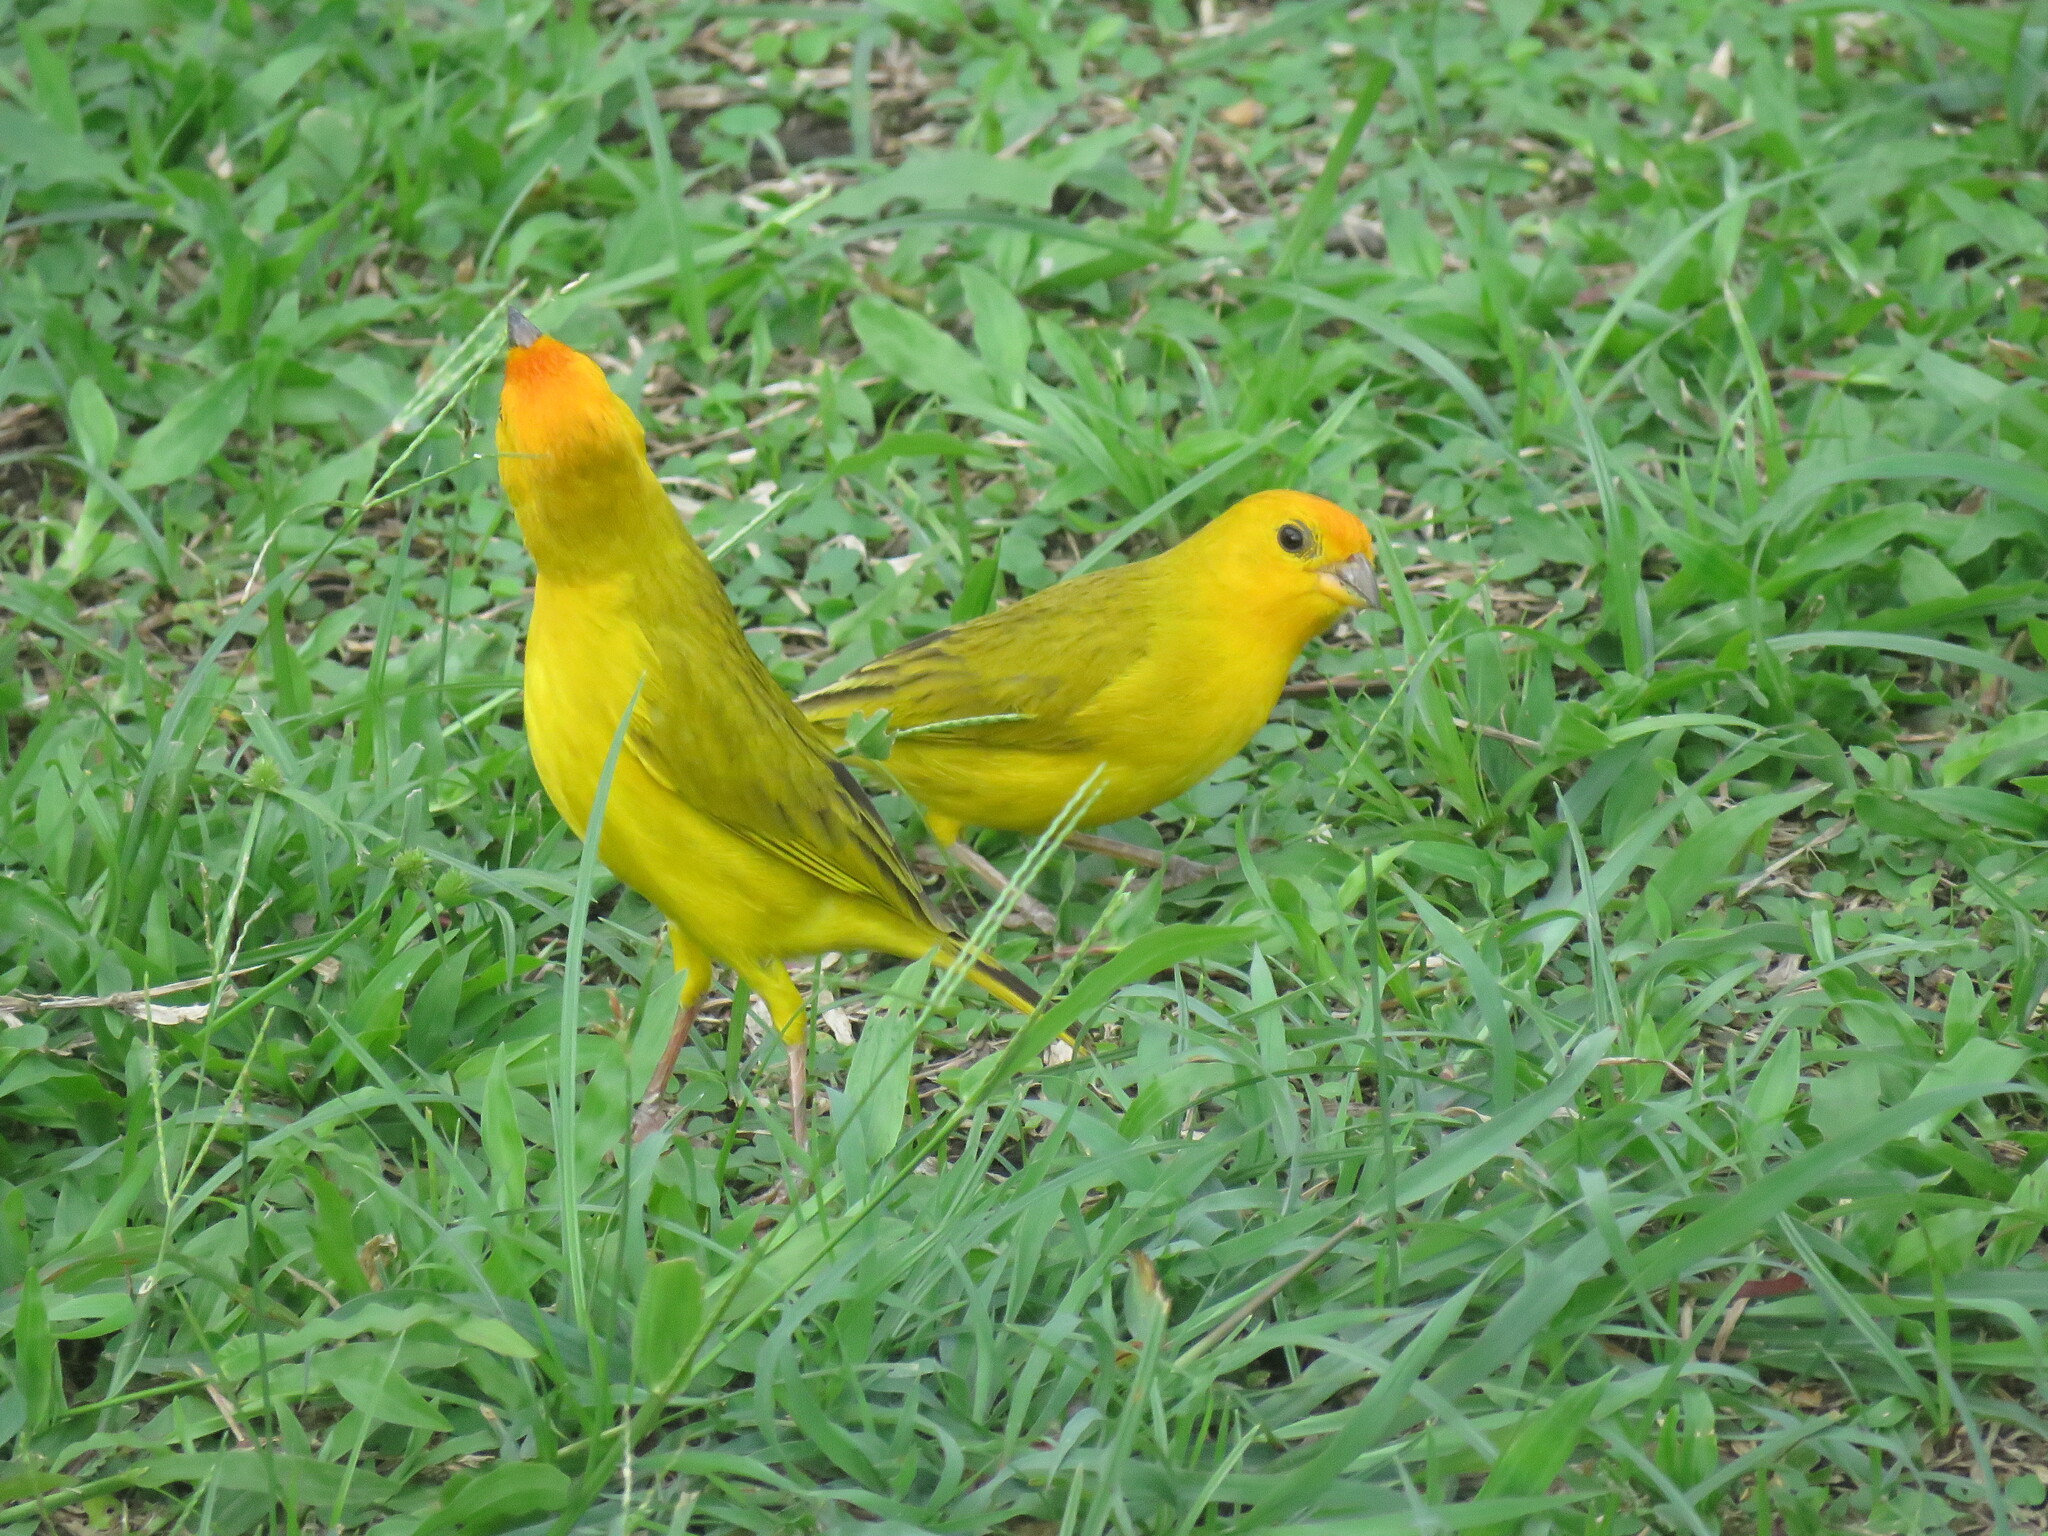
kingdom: Animalia
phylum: Chordata
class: Aves
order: Passeriformes
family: Thraupidae
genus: Sicalis
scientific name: Sicalis flaveola
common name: Saffron finch
